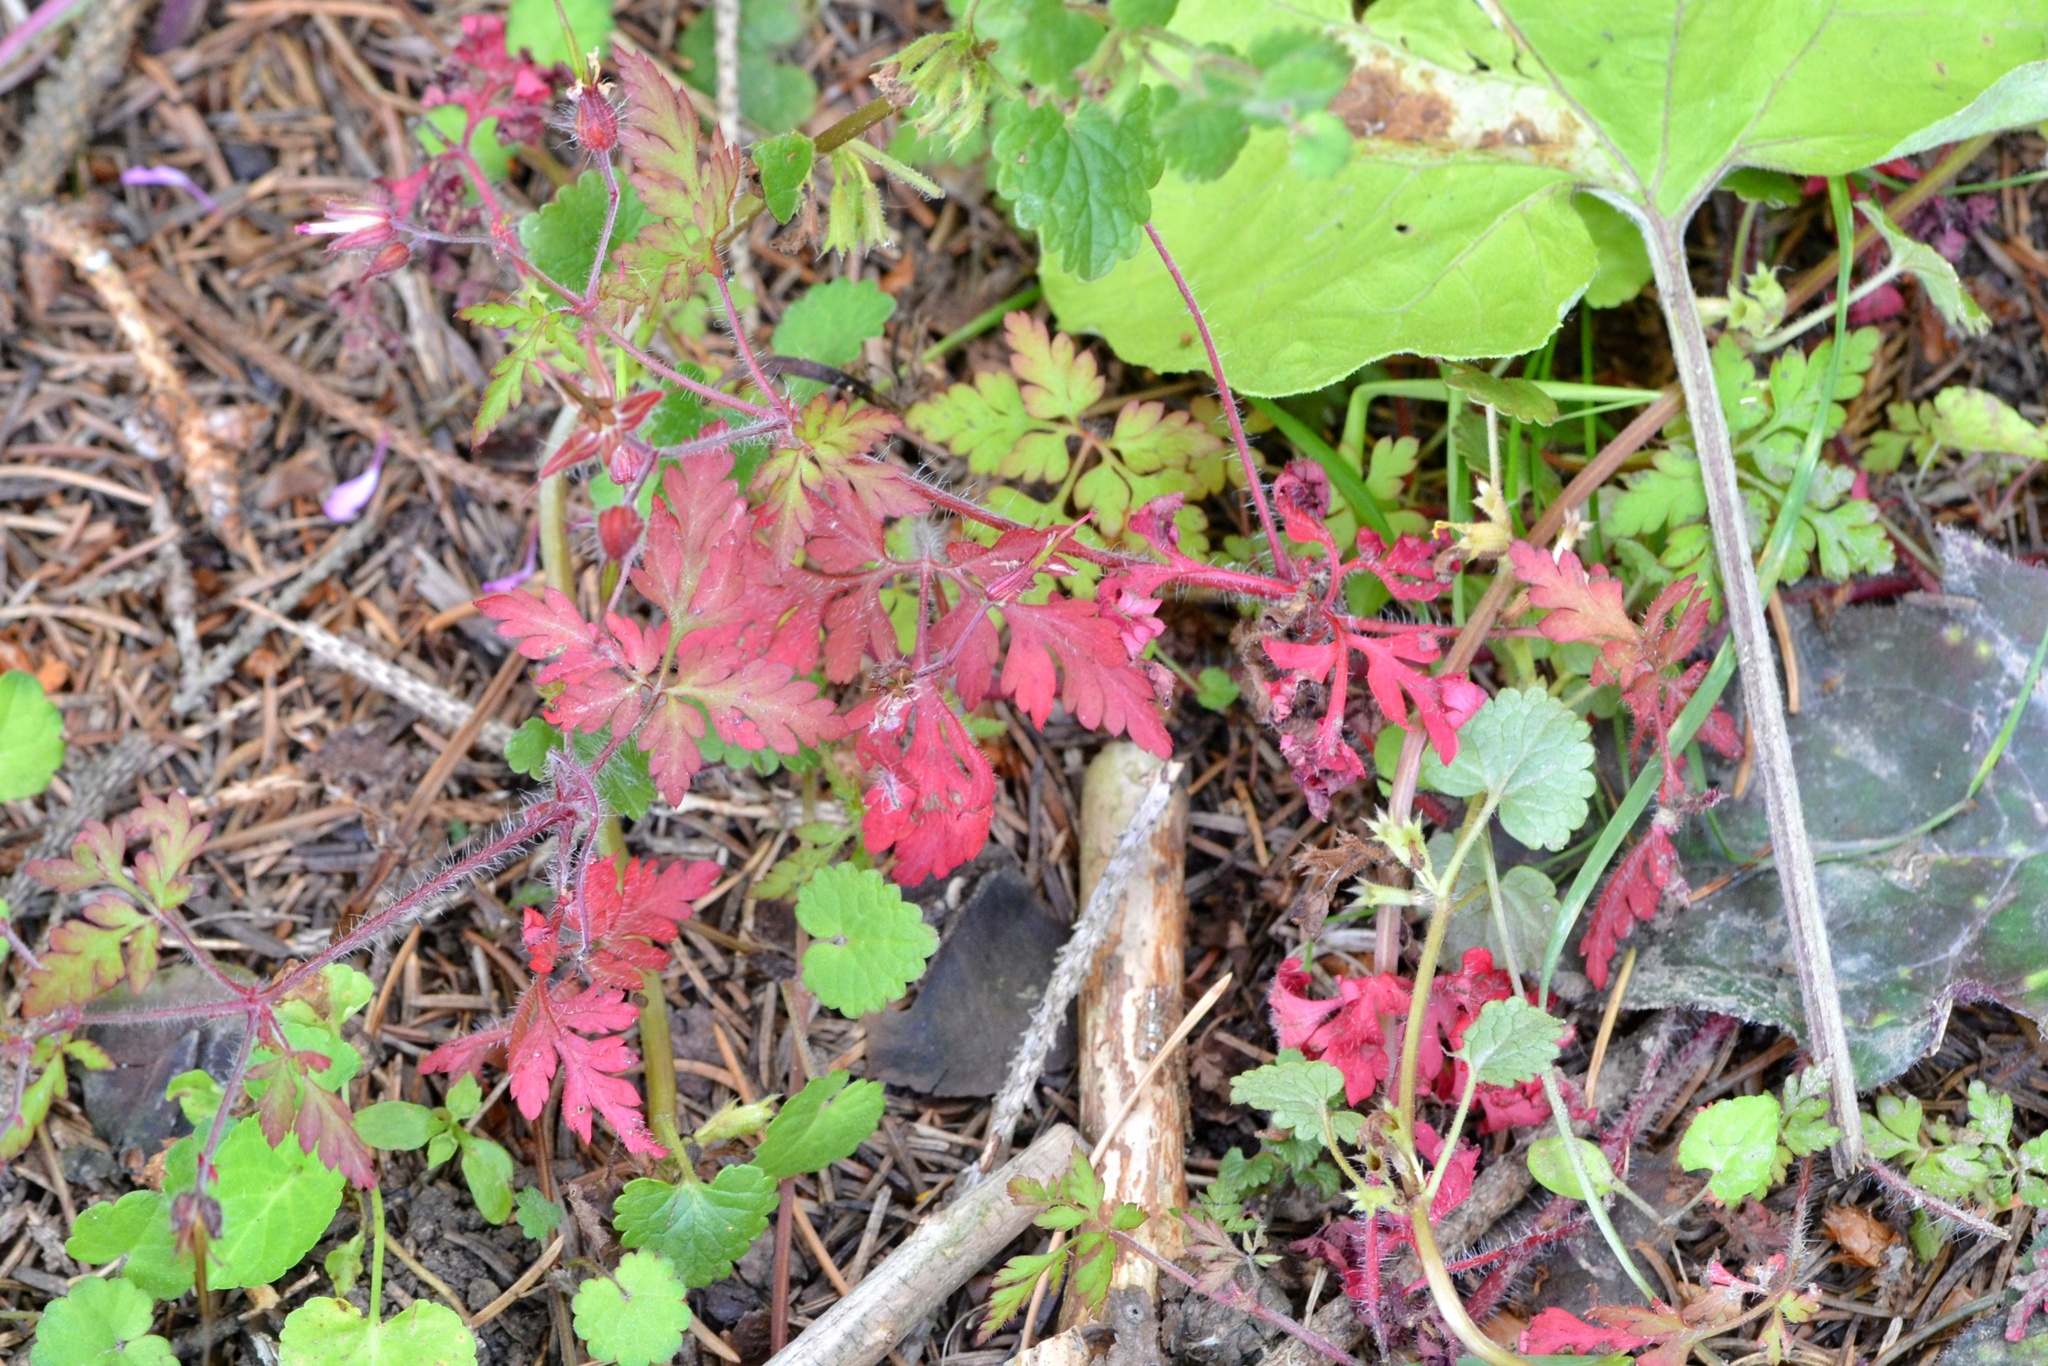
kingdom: Plantae
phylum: Tracheophyta
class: Magnoliopsida
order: Geraniales
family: Geraniaceae
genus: Geranium
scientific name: Geranium robertianum
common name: Herb-robert
